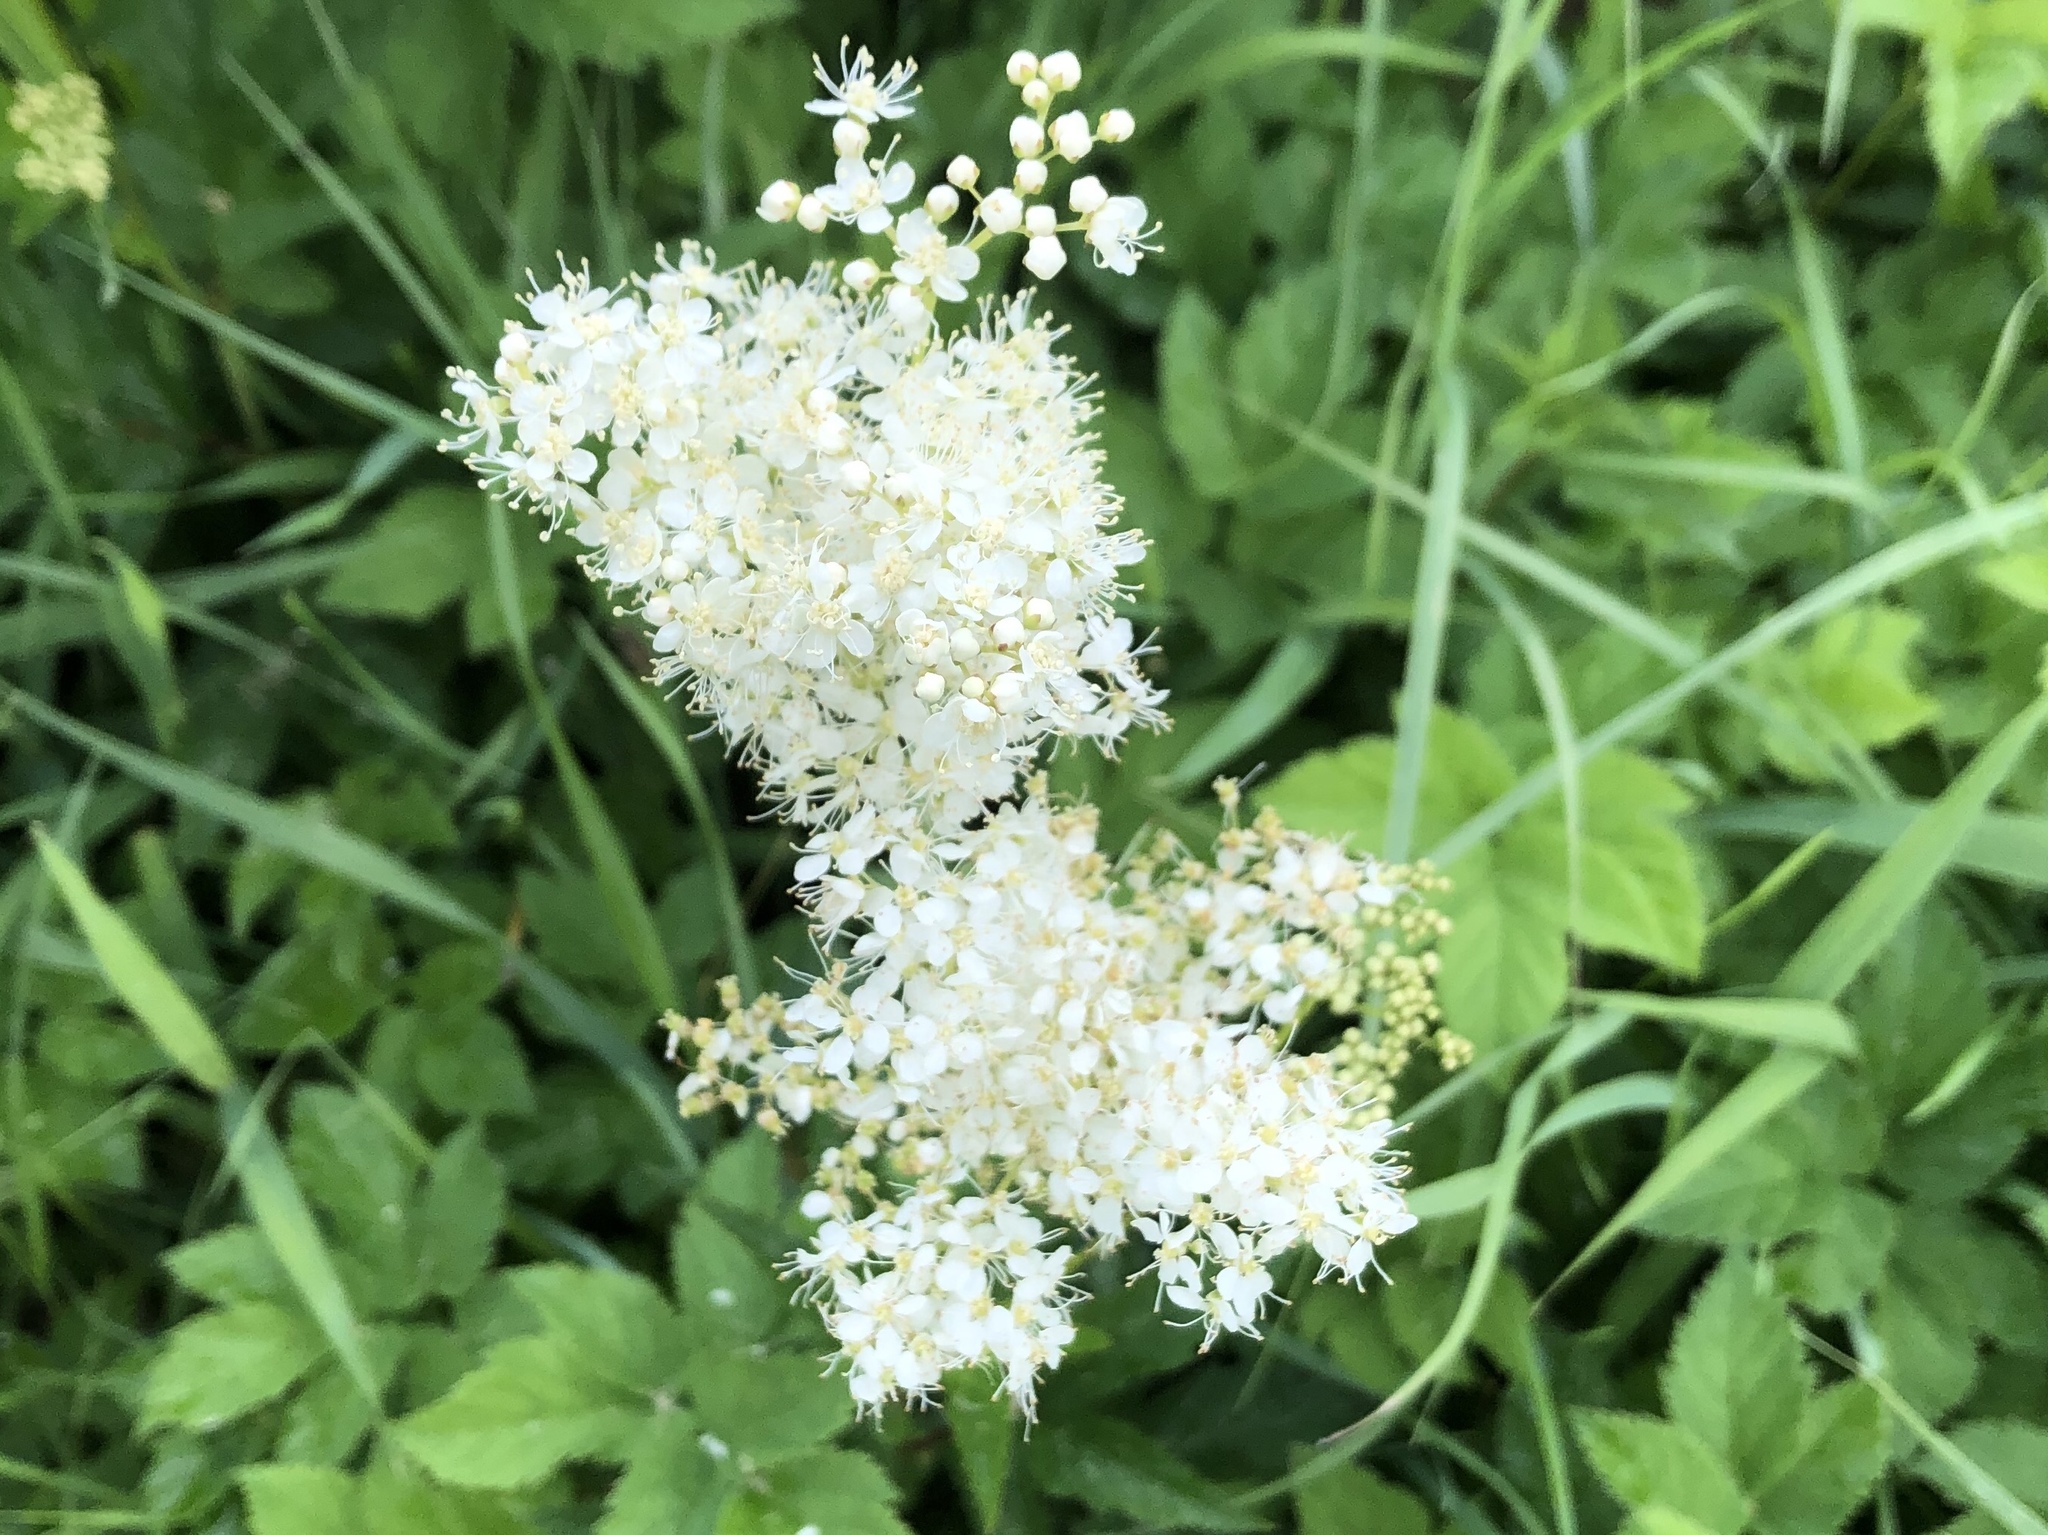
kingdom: Plantae
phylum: Tracheophyta
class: Magnoliopsida
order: Rosales
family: Rosaceae
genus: Filipendula
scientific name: Filipendula ulmaria
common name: Meadowsweet
